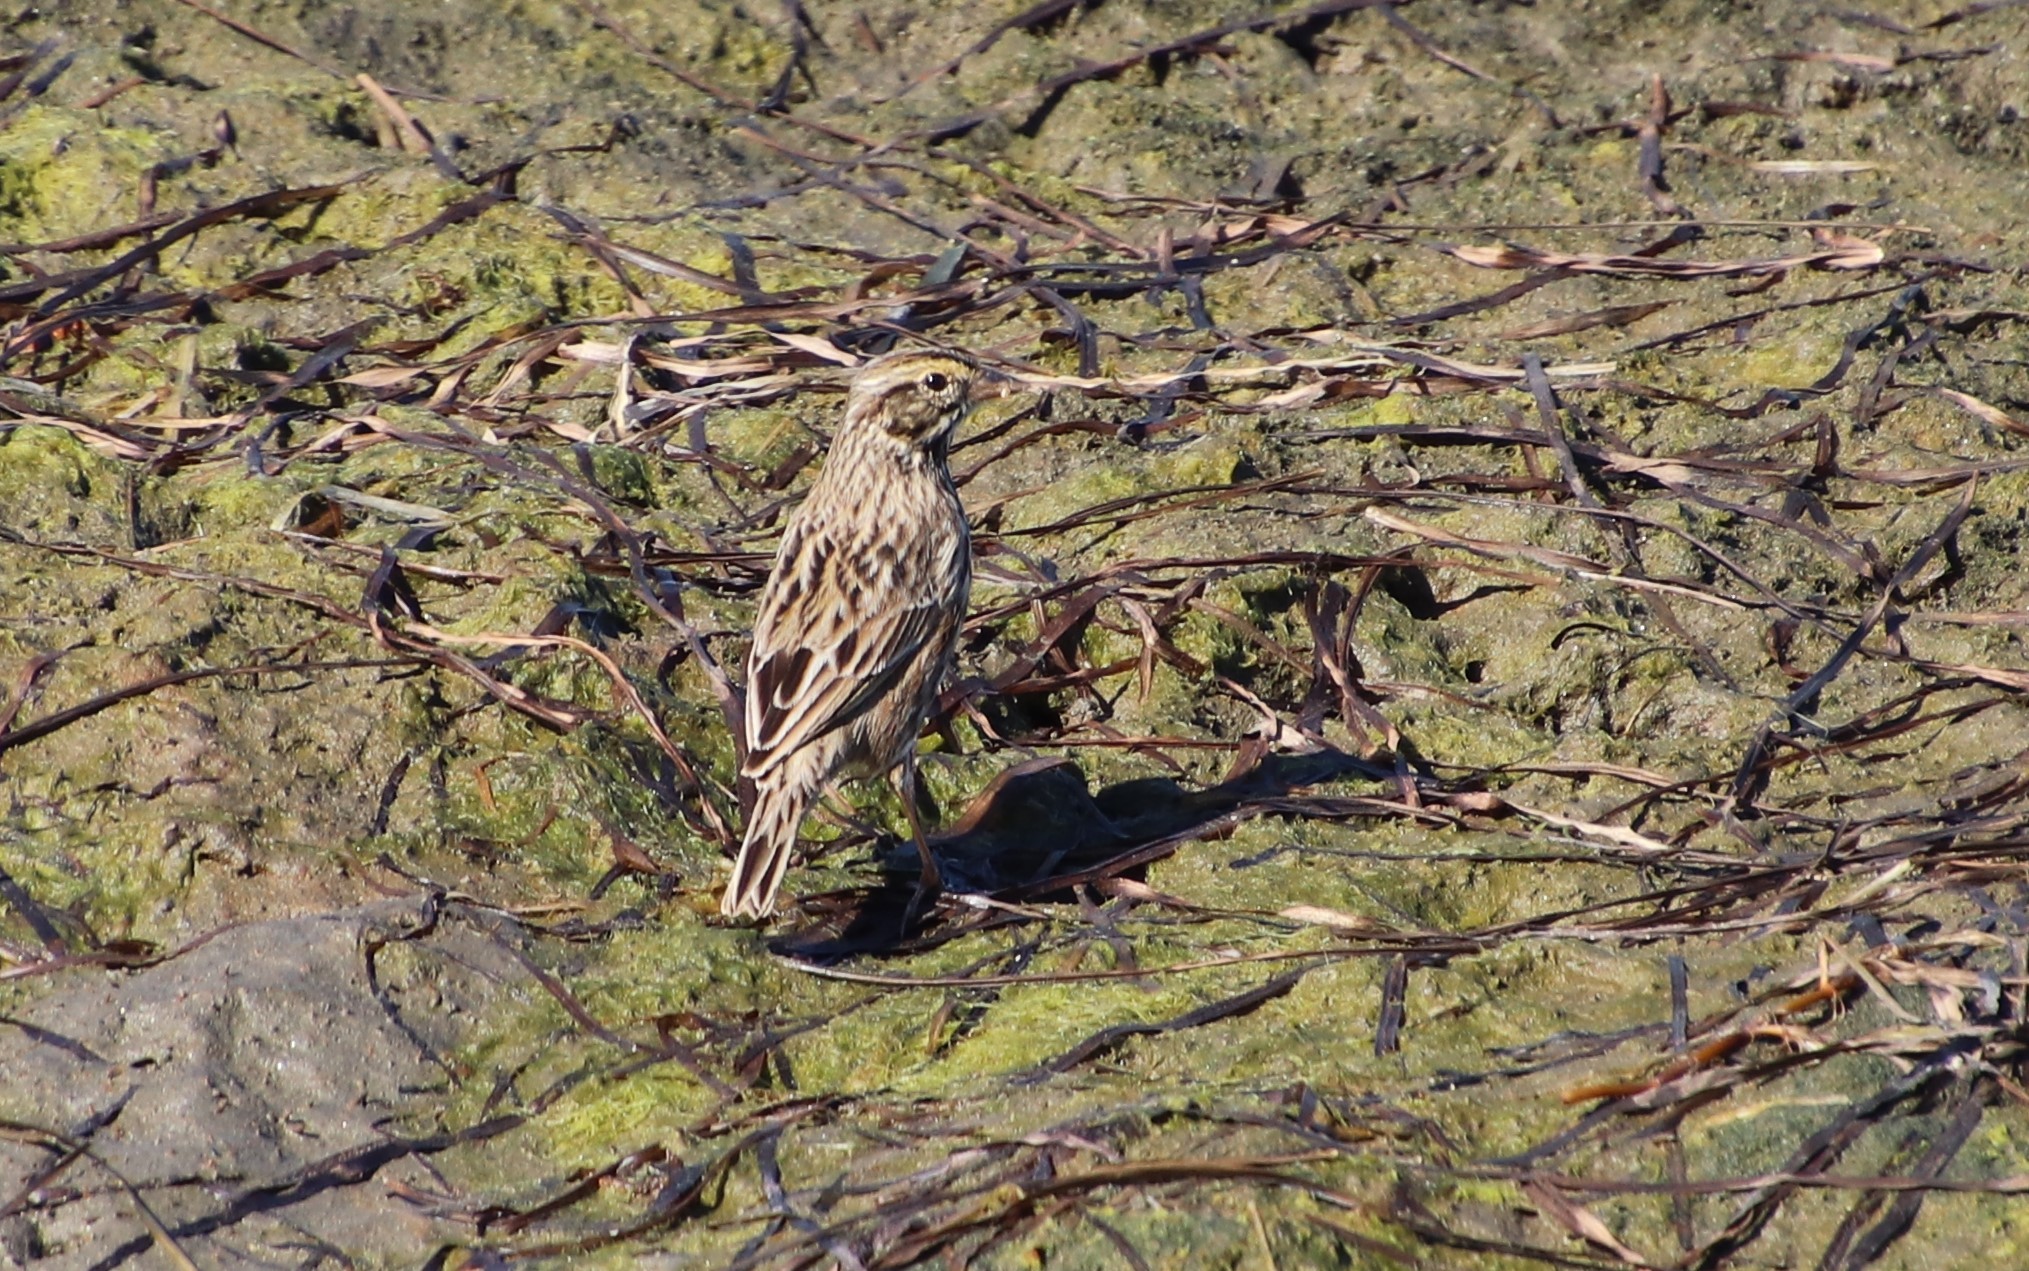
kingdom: Animalia
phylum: Chordata
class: Aves
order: Passeriformes
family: Passerellidae
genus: Passerculus
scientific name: Passerculus sandwichensis
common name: Savannah sparrow
